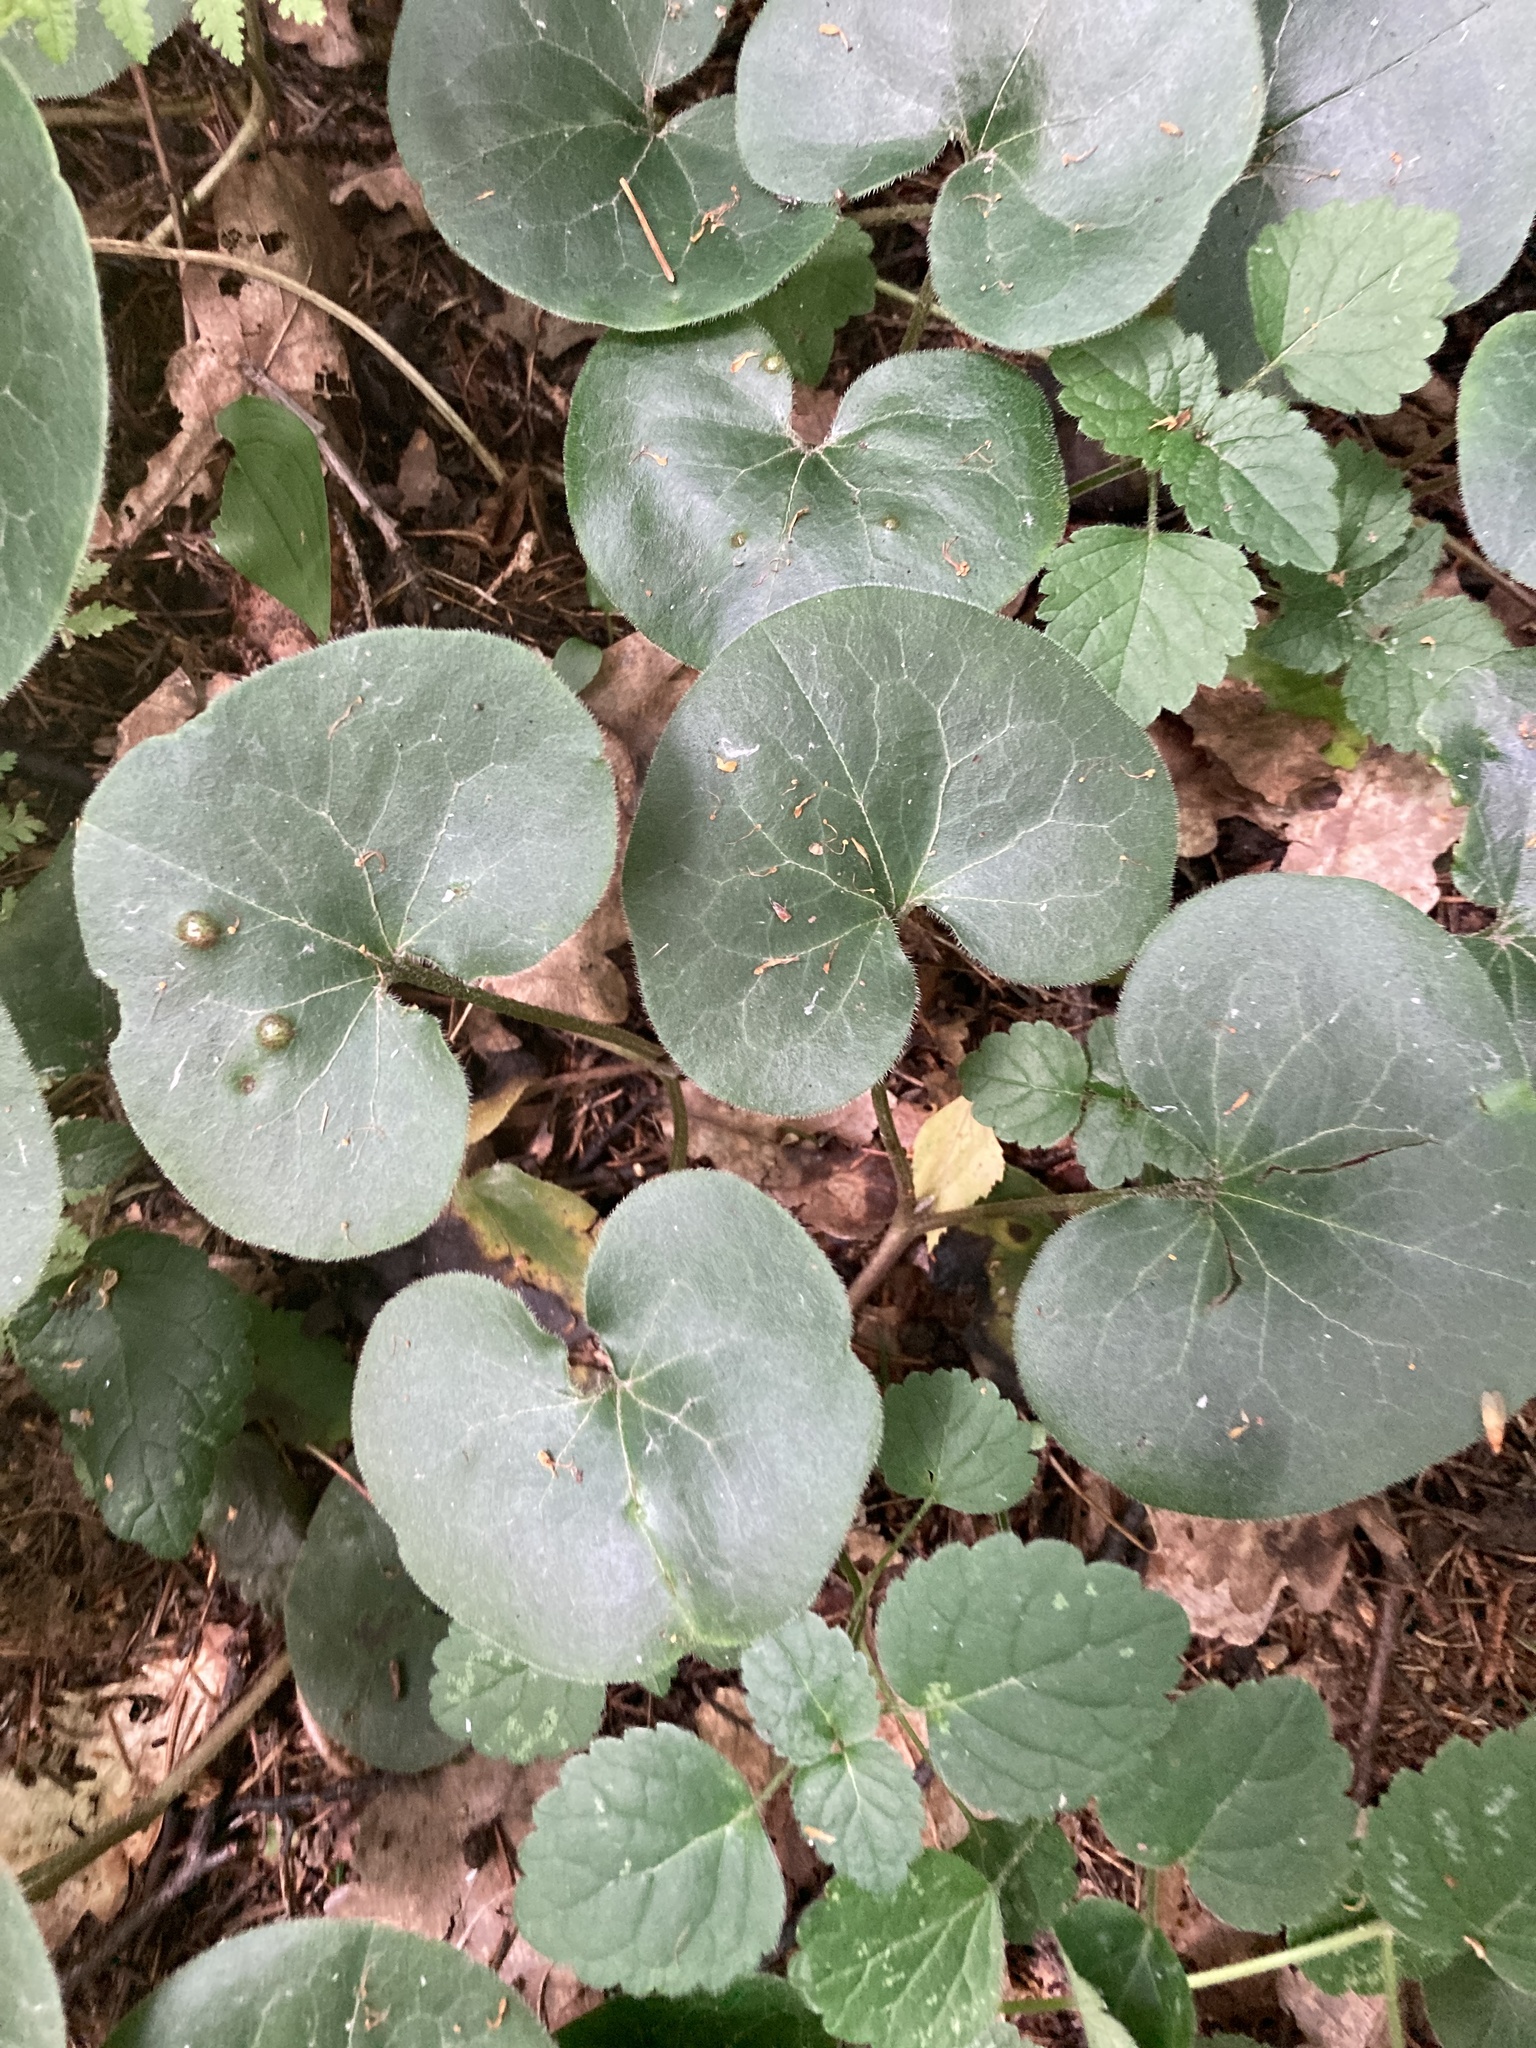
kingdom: Plantae
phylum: Tracheophyta
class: Magnoliopsida
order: Piperales
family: Aristolochiaceae
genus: Asarum
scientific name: Asarum europaeum
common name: Asarabacca
